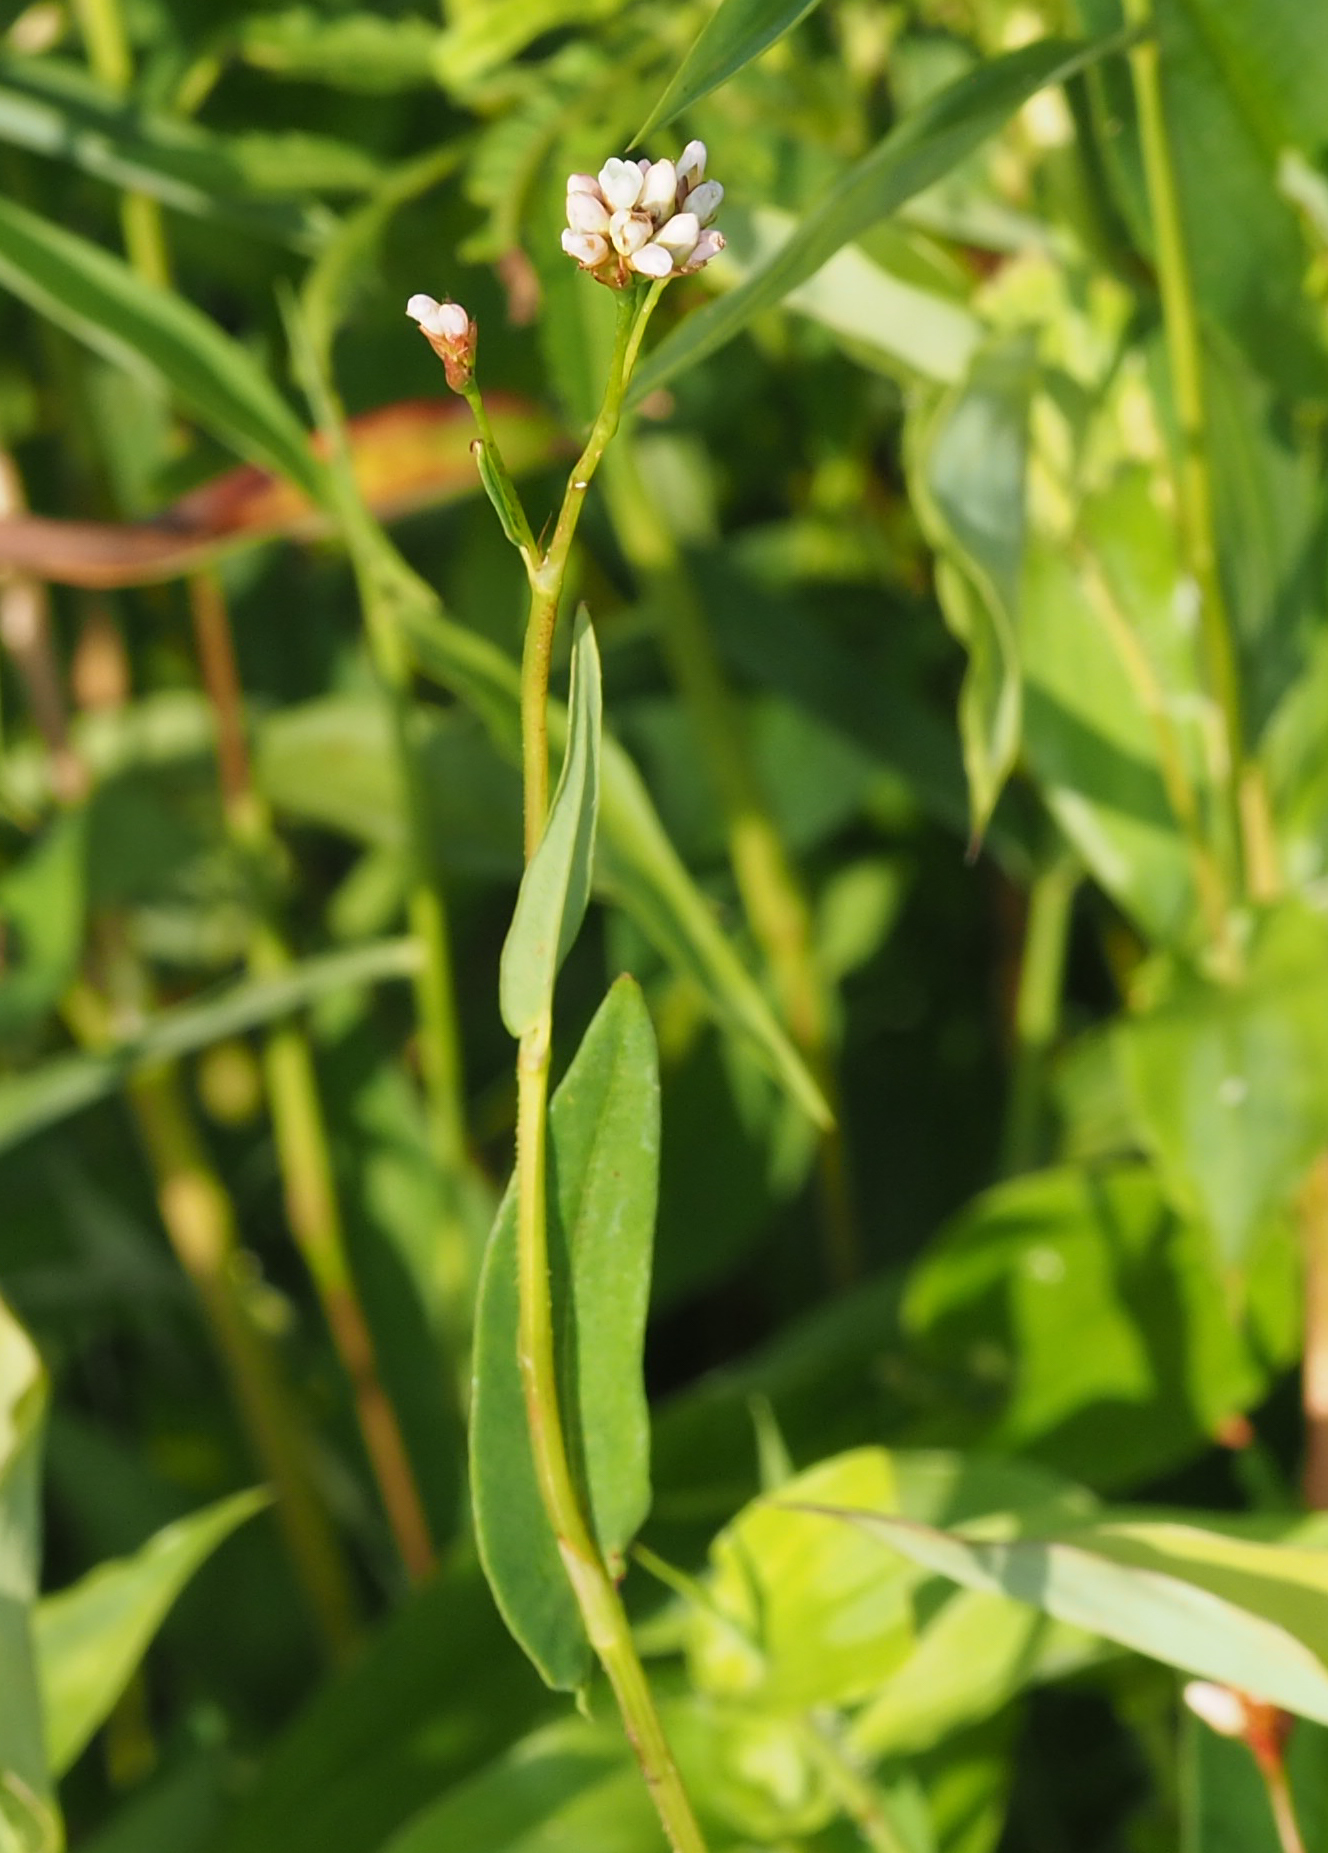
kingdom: Plantae
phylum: Tracheophyta
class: Magnoliopsida
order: Caryophyllales
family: Polygonaceae
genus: Persicaria
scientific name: Persicaria sagittata
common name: American tearthumb
